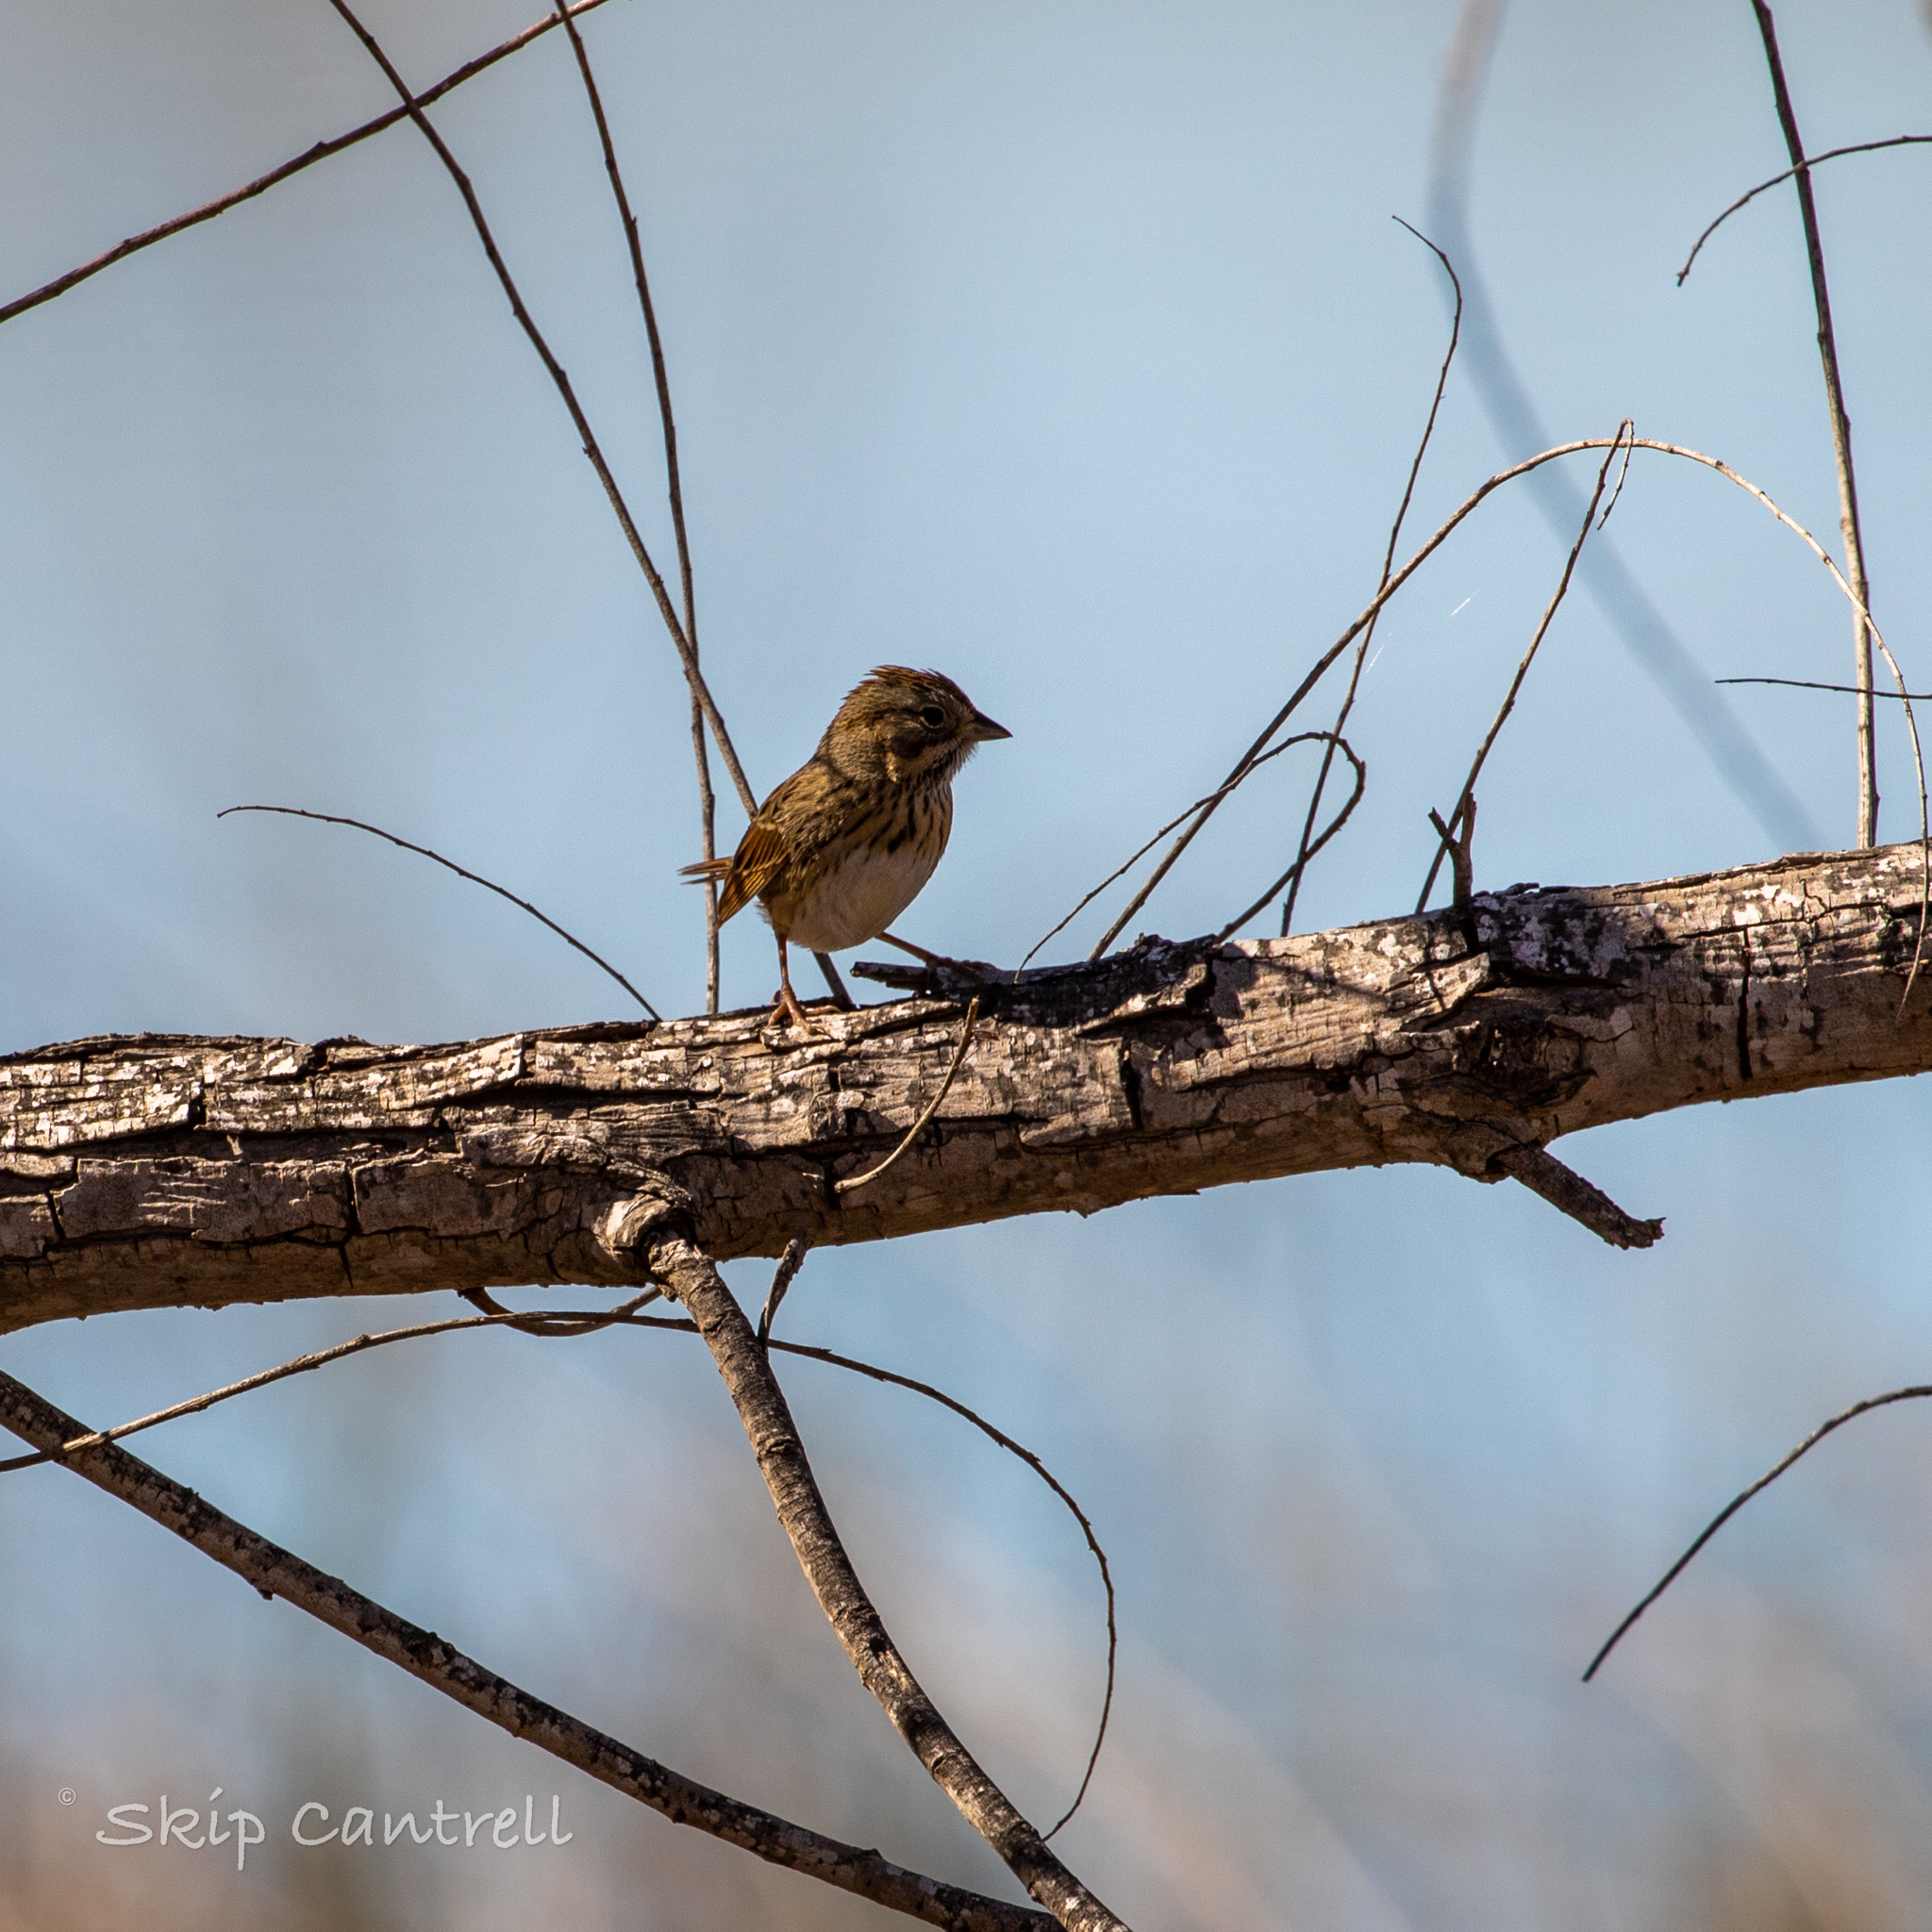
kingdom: Animalia
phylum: Chordata
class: Aves
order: Passeriformes
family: Passerellidae
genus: Melospiza
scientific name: Melospiza lincolnii
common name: Lincoln's sparrow
